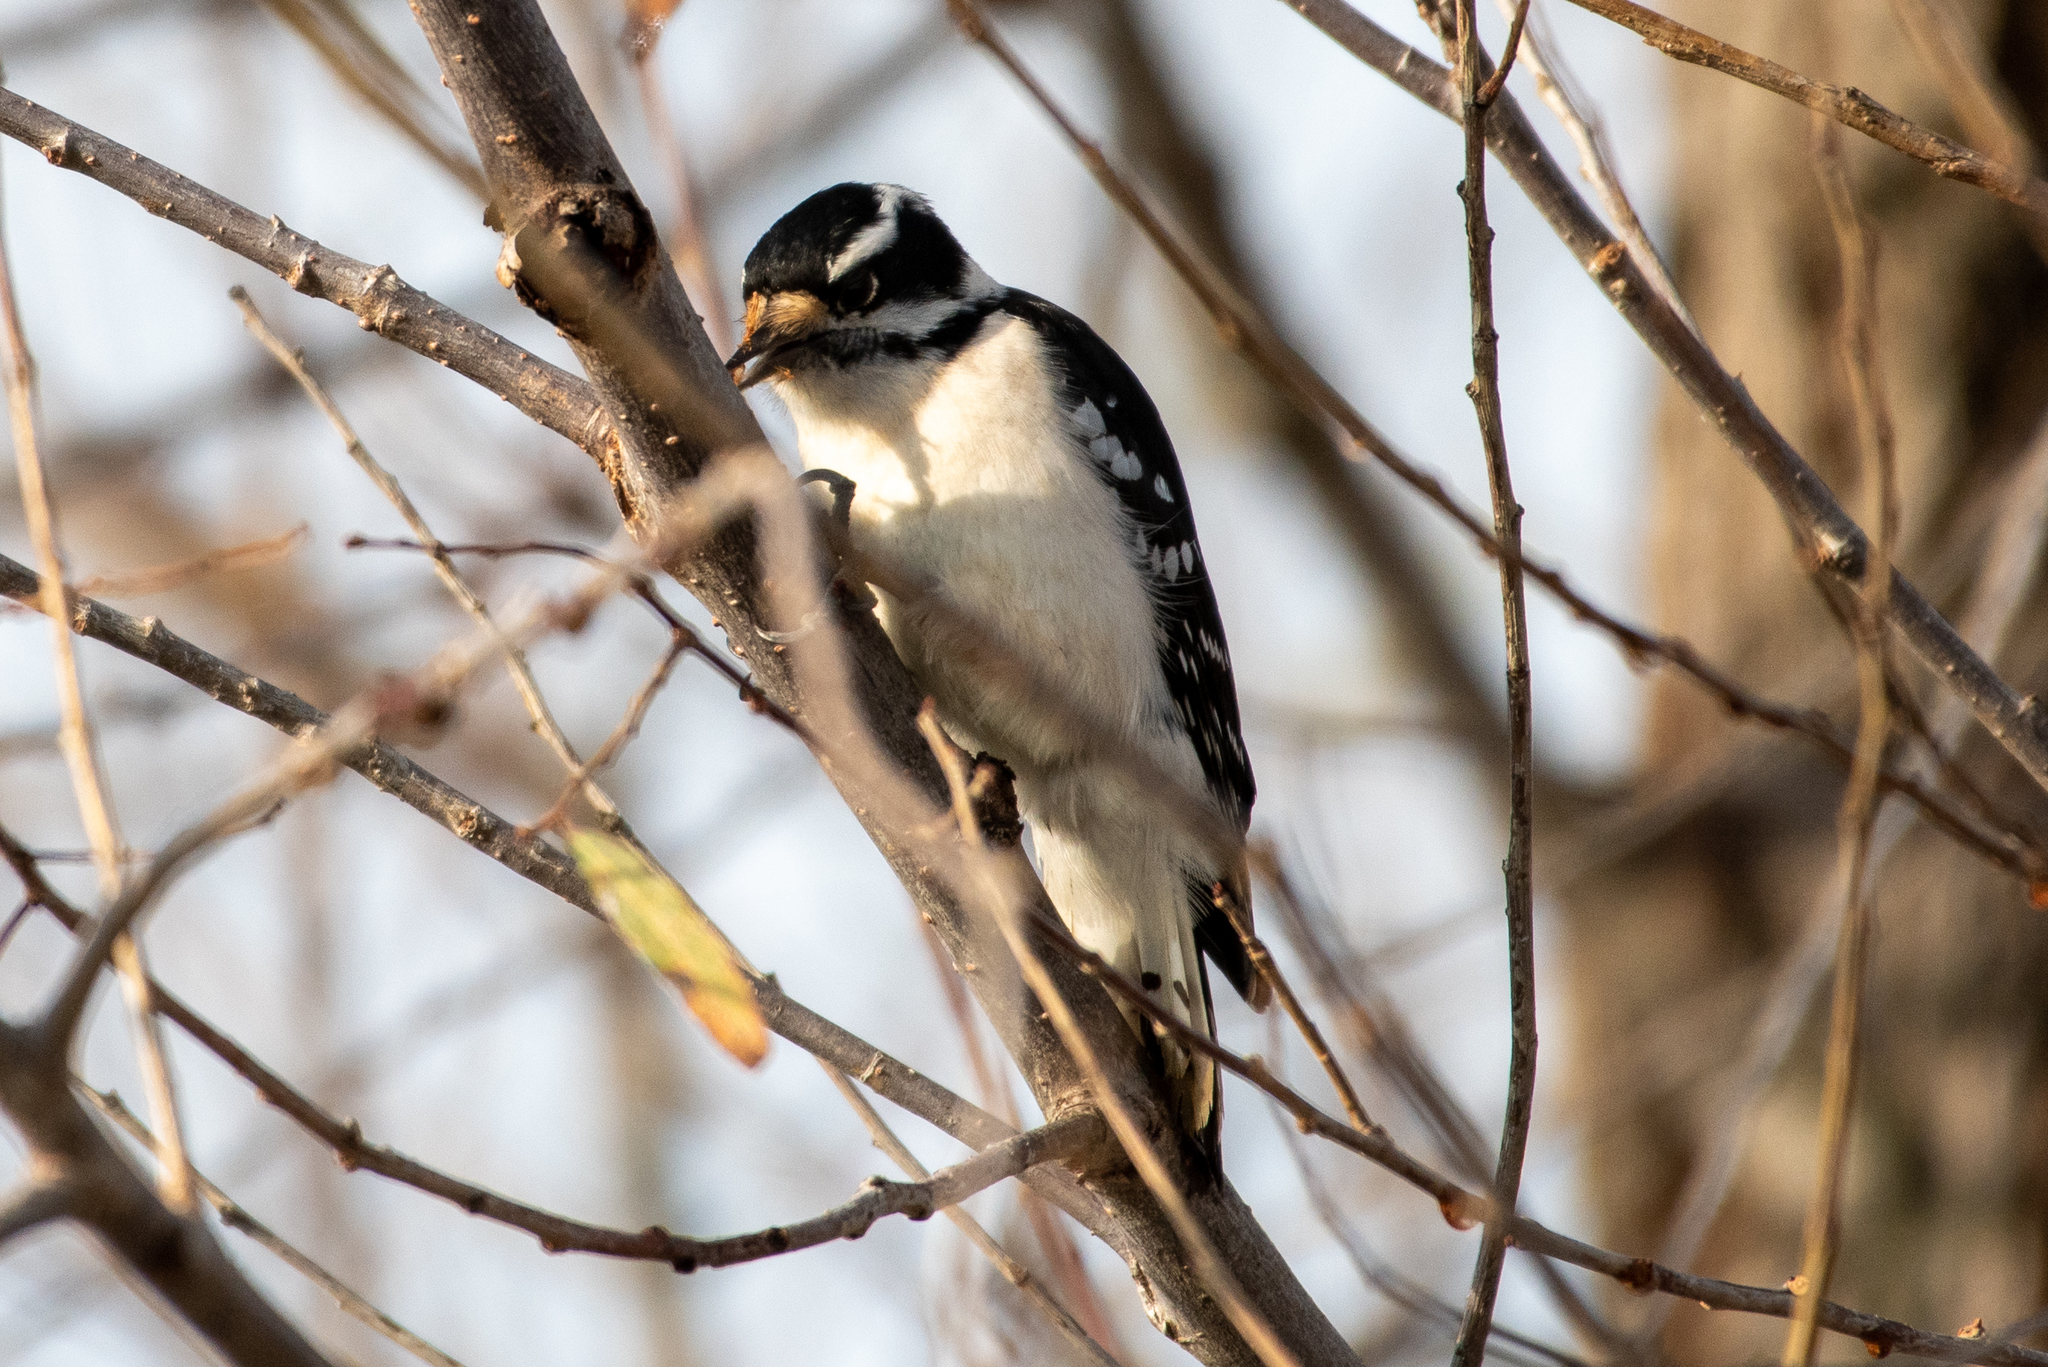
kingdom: Animalia
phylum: Chordata
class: Aves
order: Piciformes
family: Picidae
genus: Dryobates
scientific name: Dryobates pubescens
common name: Downy woodpecker
